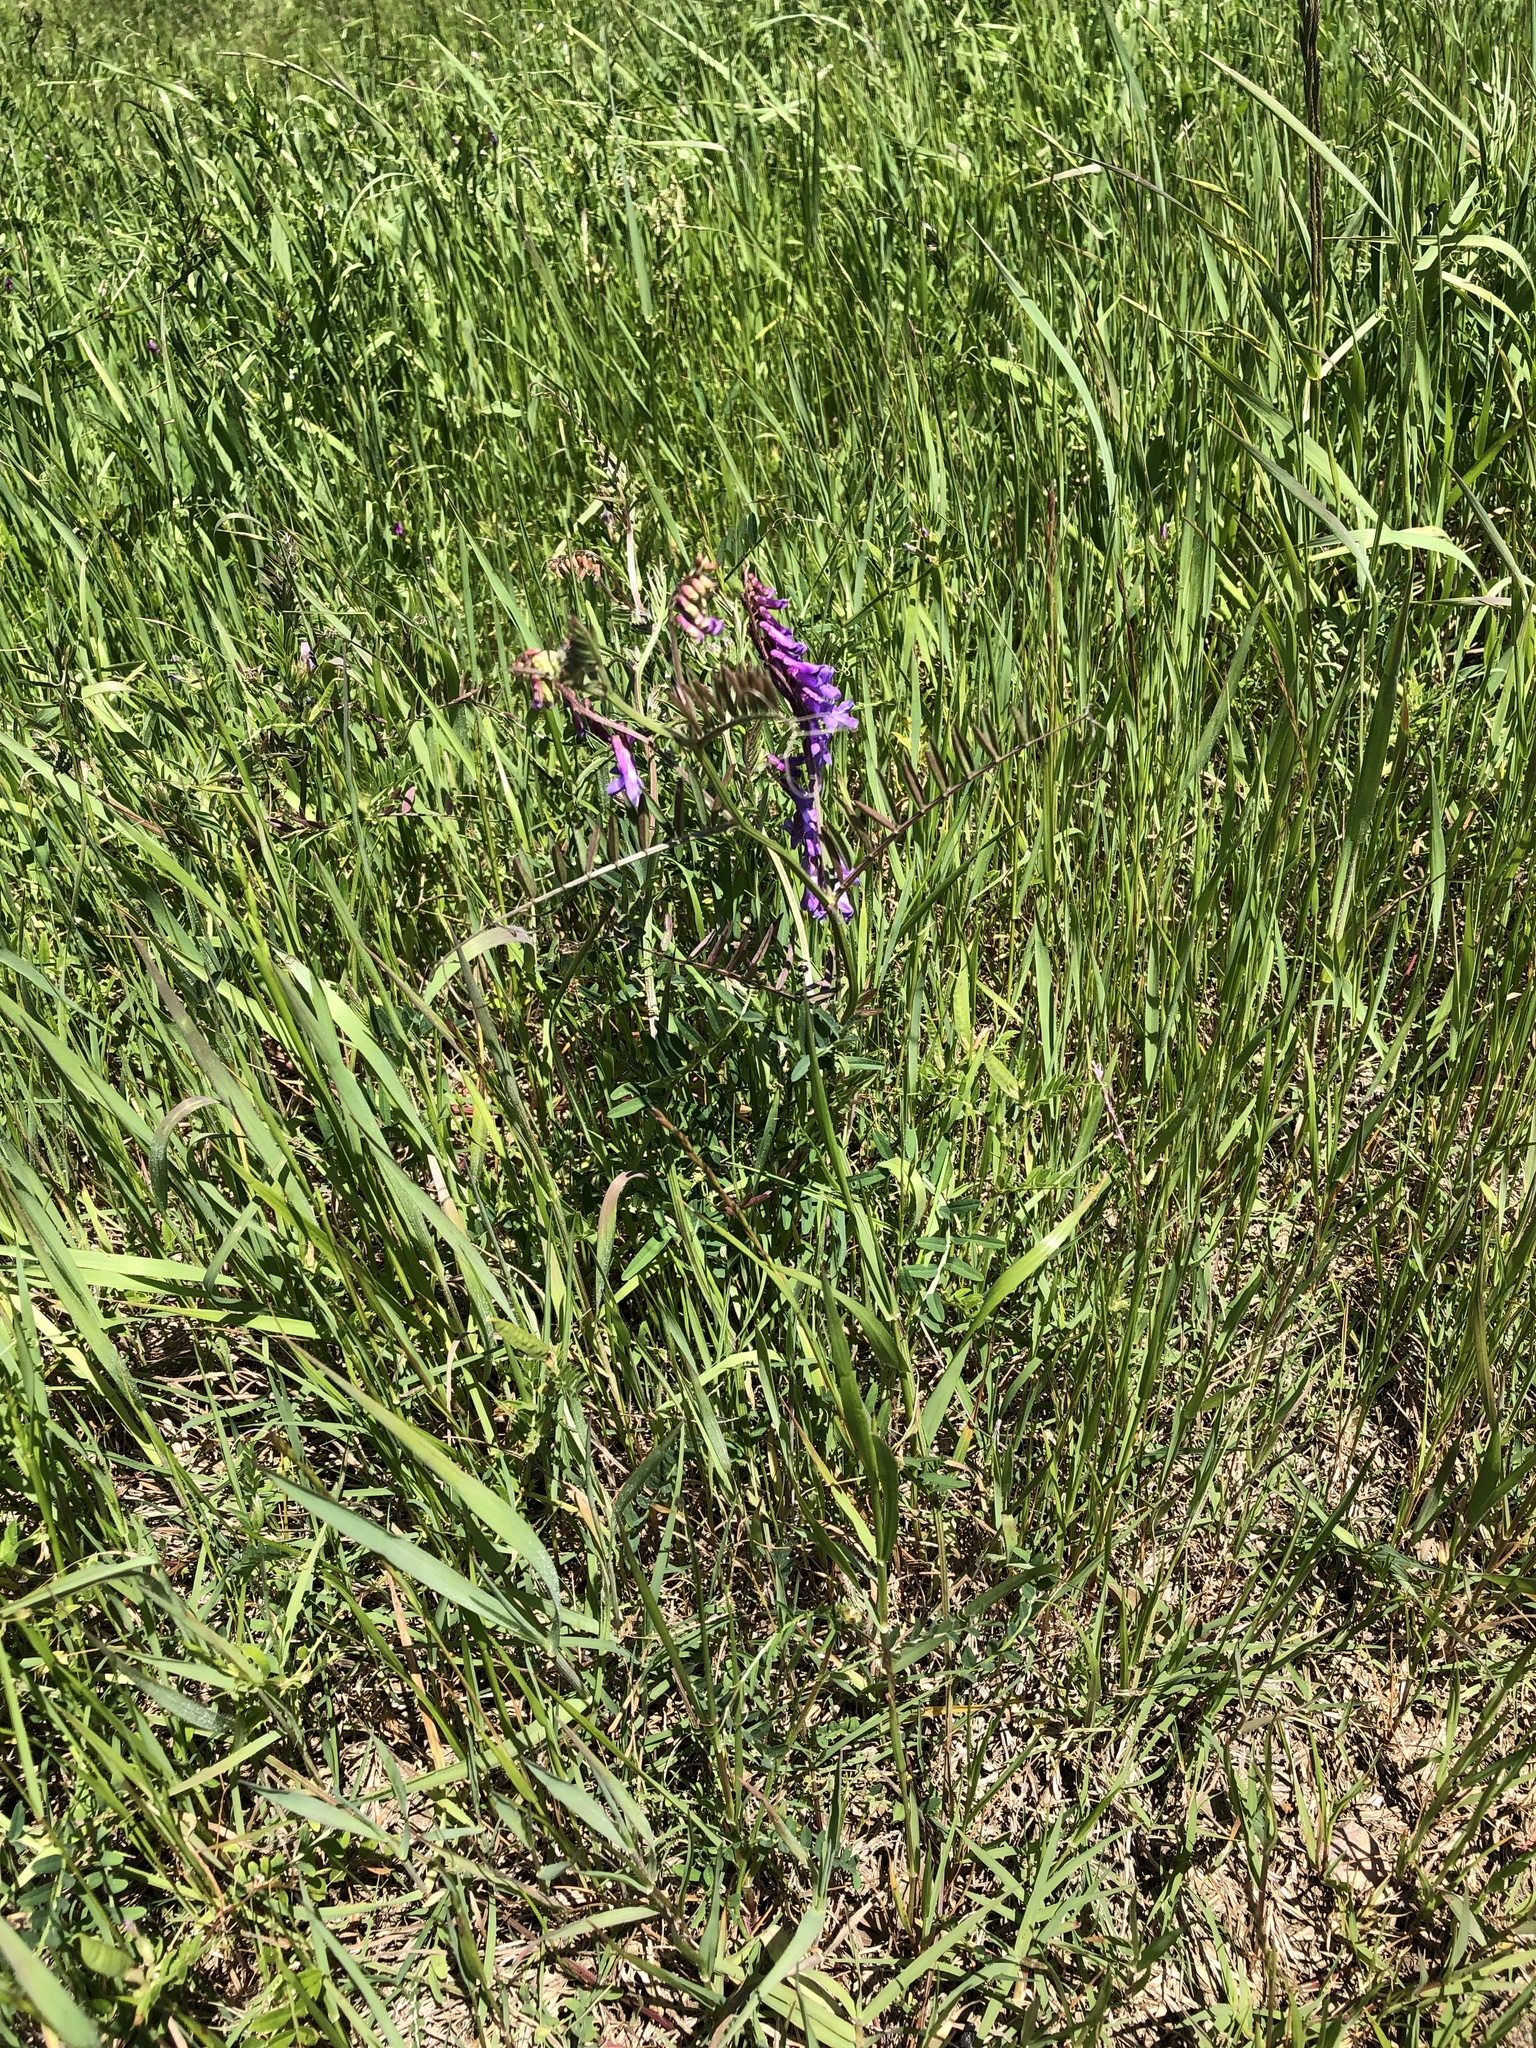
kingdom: Plantae
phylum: Tracheophyta
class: Magnoliopsida
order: Fabales
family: Fabaceae
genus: Vicia
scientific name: Vicia villosa
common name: Fodder vetch
